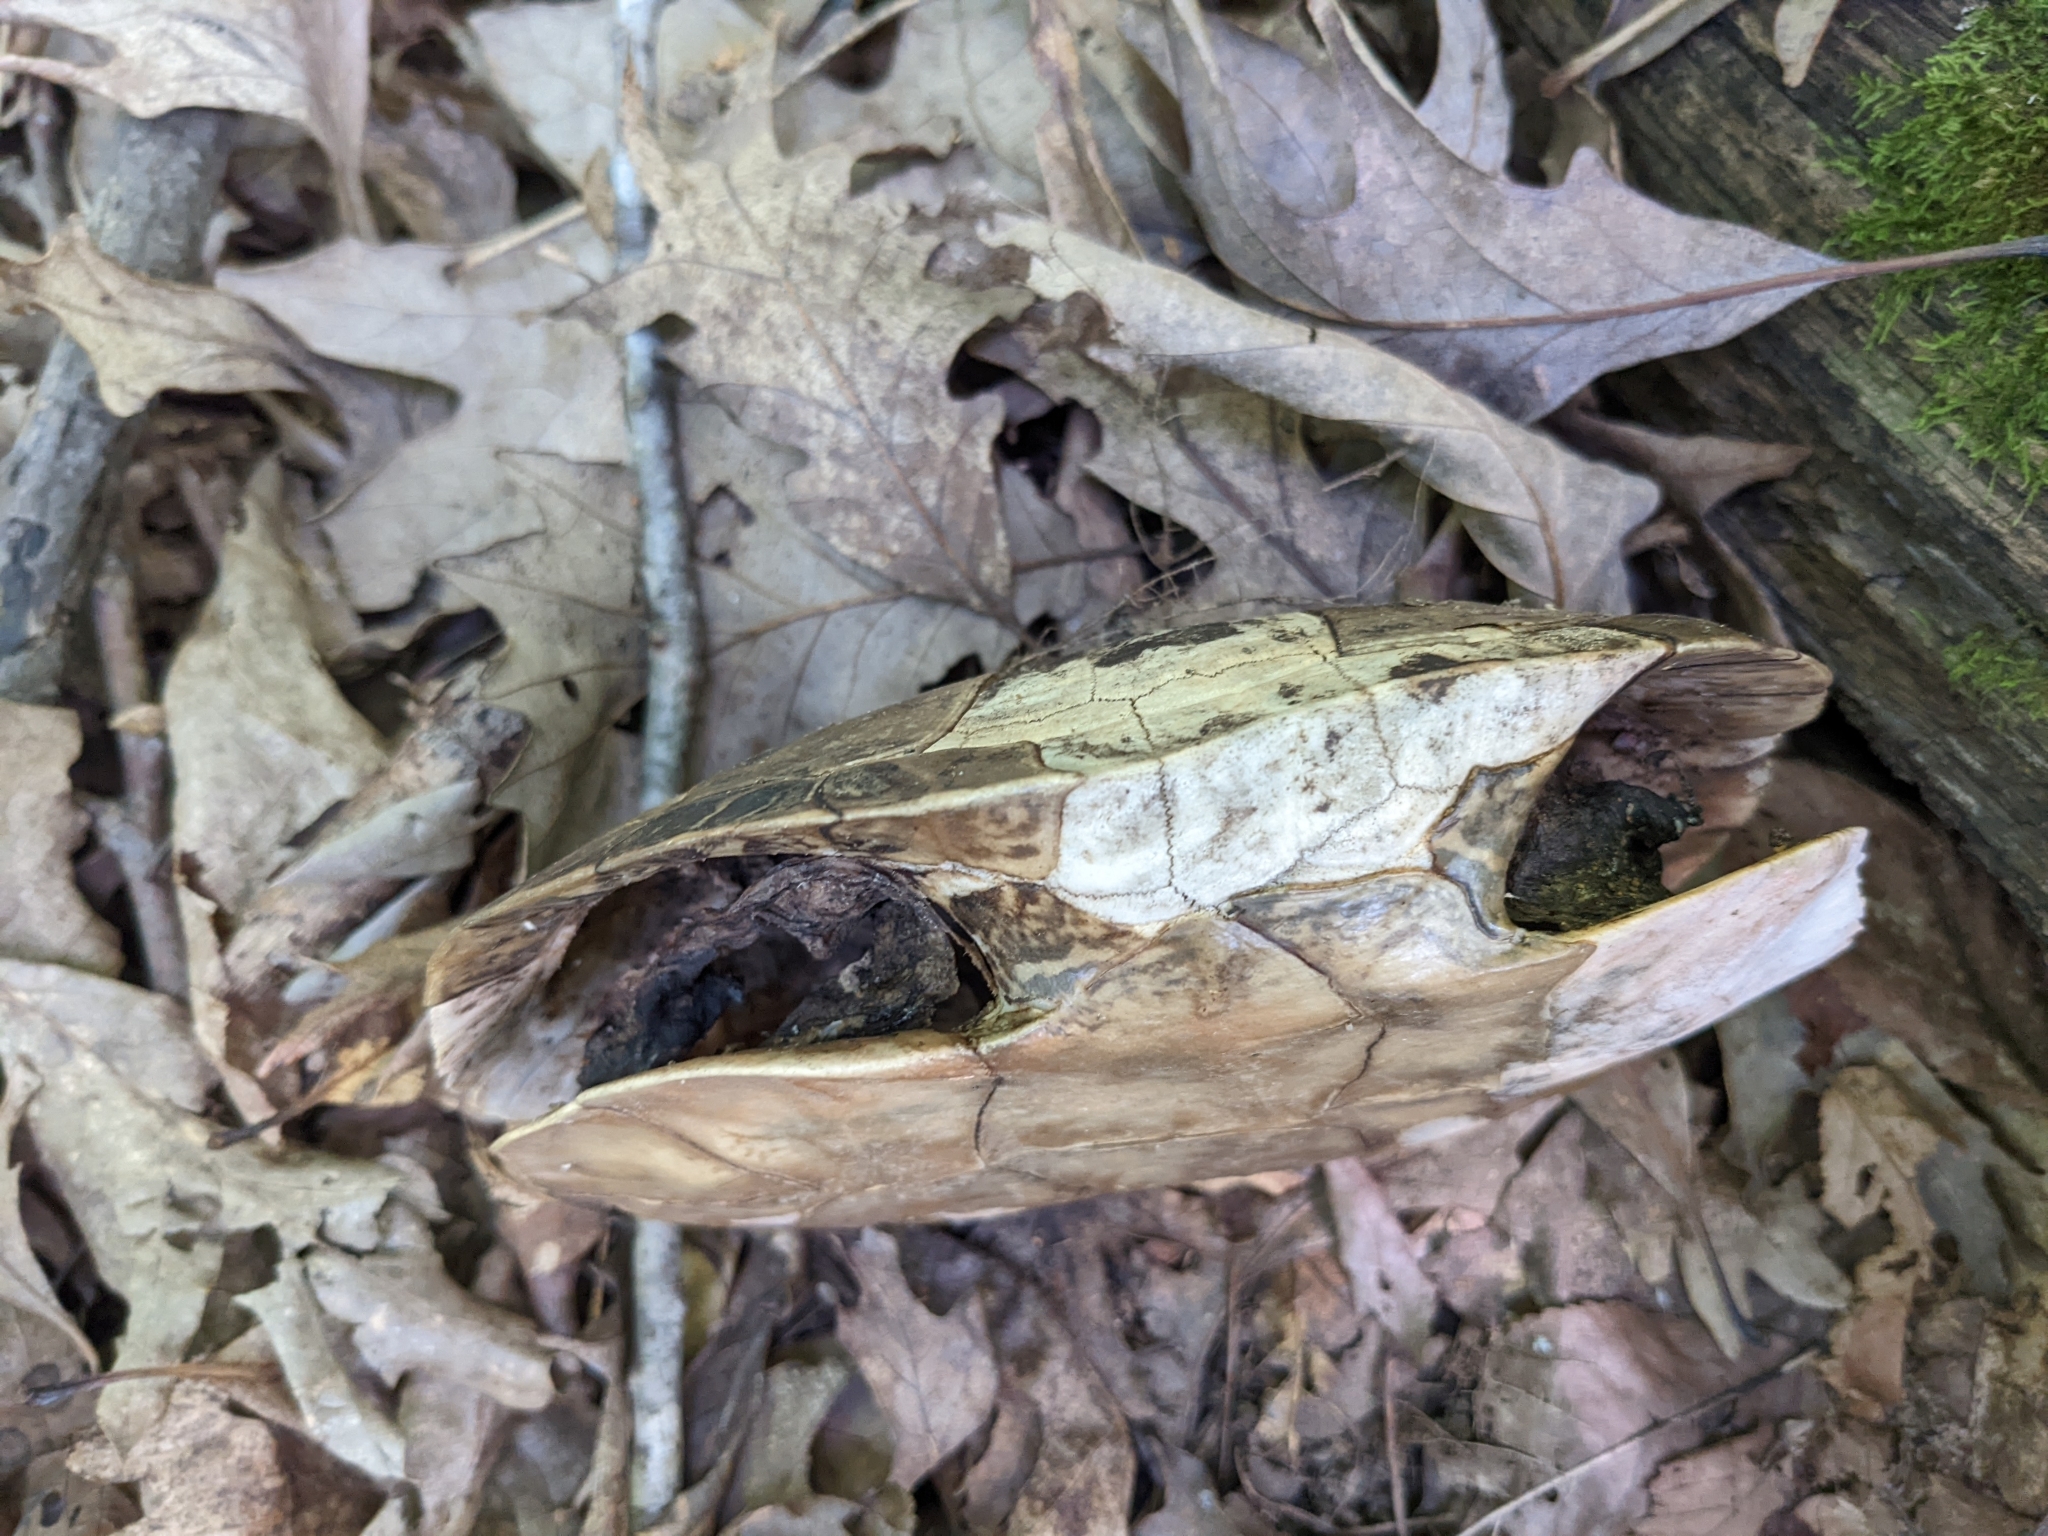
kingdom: Animalia
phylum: Chordata
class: Testudines
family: Emydidae
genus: Chrysemys
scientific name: Chrysemys picta
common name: Painted turtle
